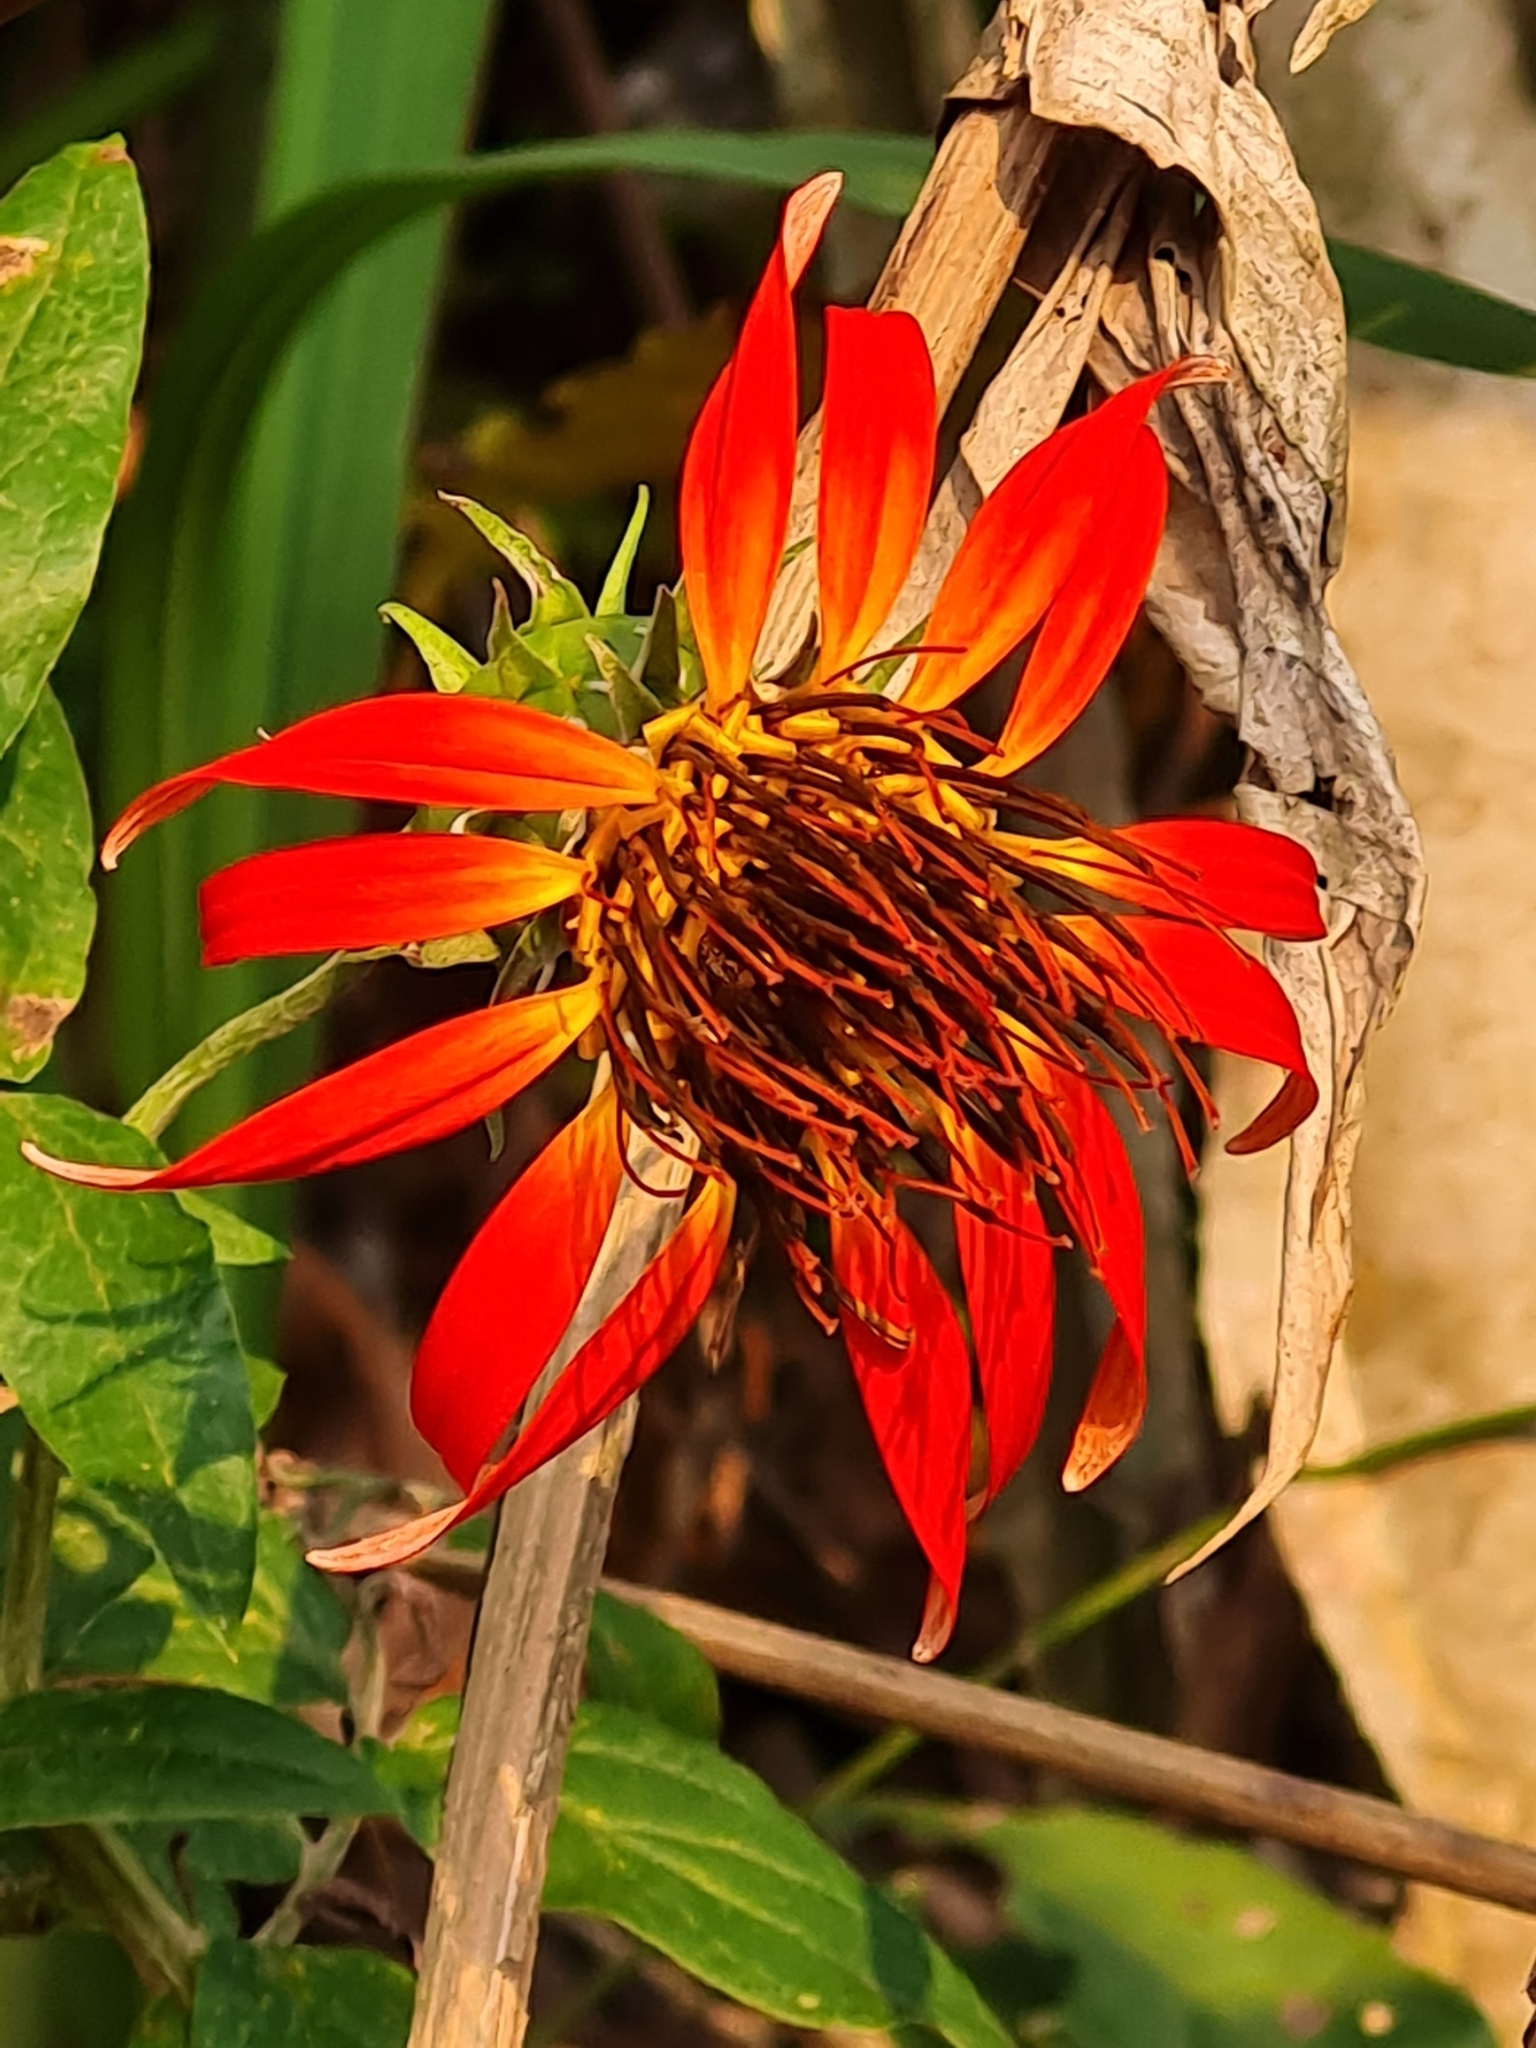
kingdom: Plantae
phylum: Tracheophyta
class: Magnoliopsida
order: Asterales
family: Asteraceae
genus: Mutisia
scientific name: Mutisia coccinea
